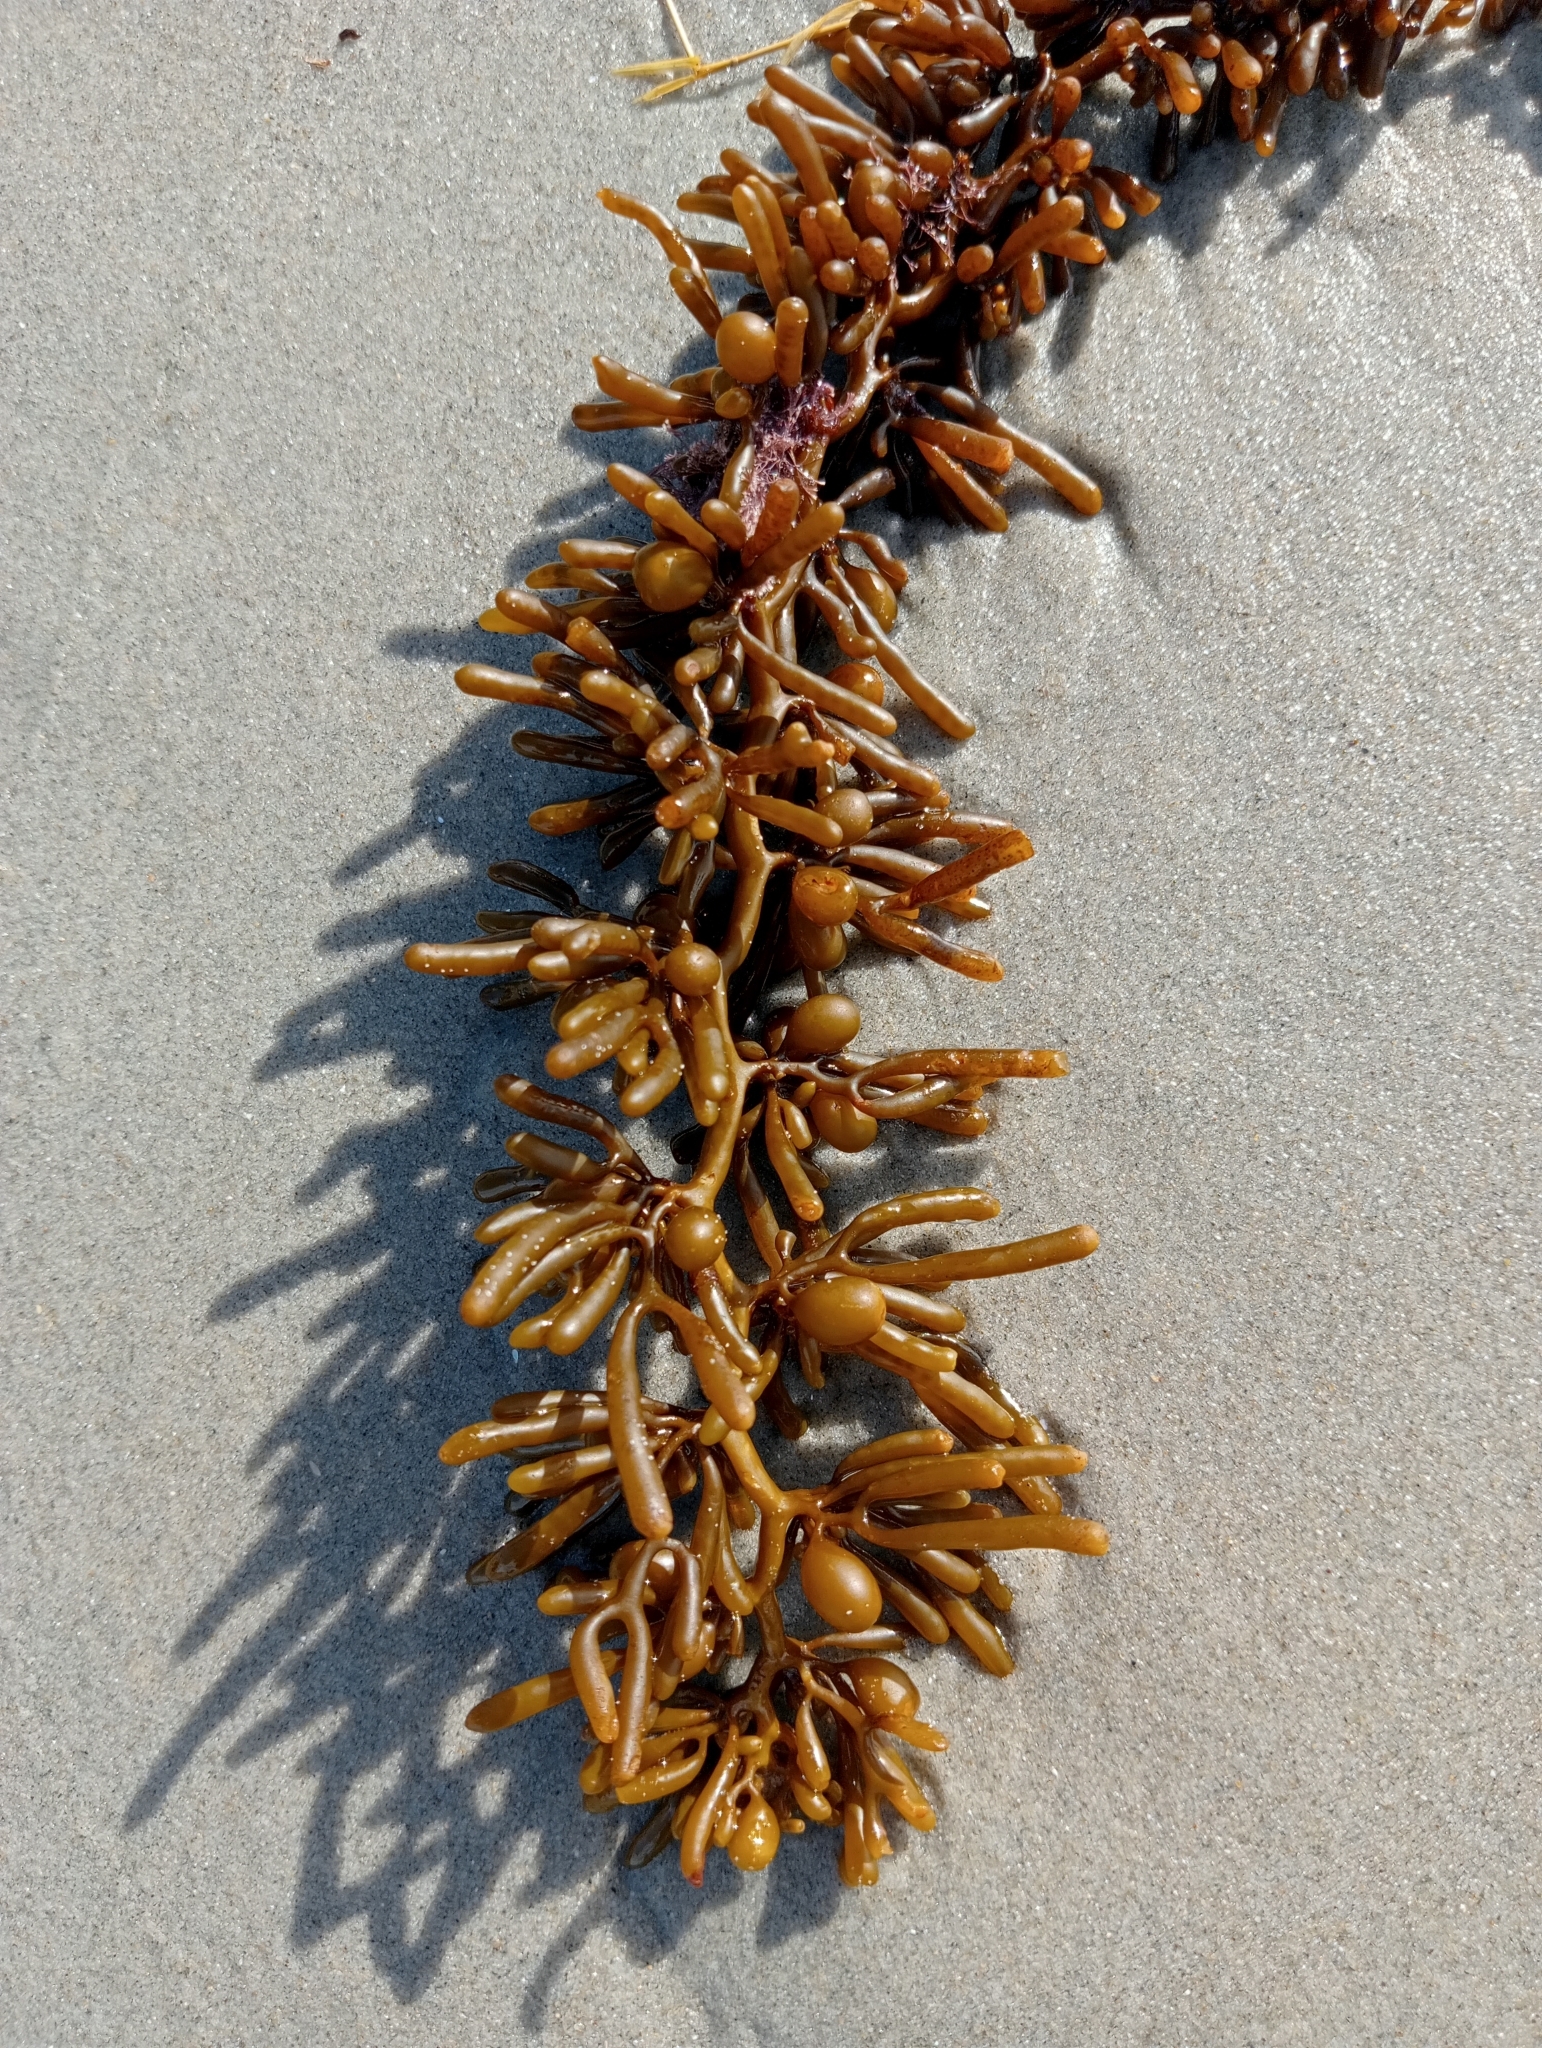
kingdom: Chromista
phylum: Ochrophyta
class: Phaeophyceae
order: Fucales
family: Sargassaceae
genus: Cystophora
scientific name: Cystophora torulosa
